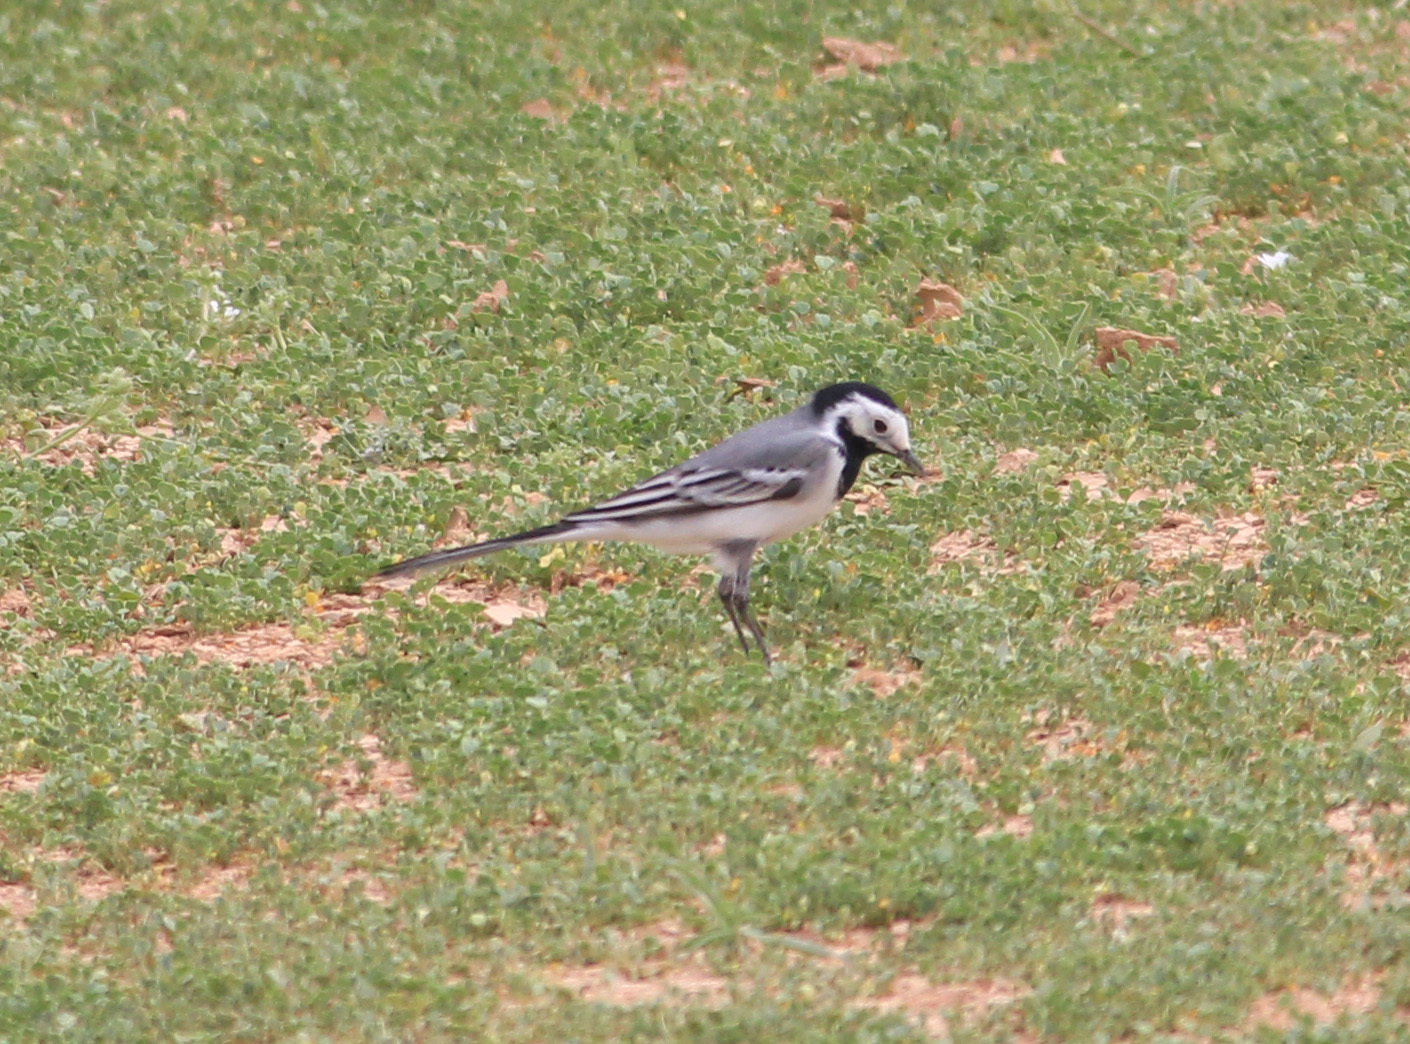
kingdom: Animalia
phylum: Chordata
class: Aves
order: Passeriformes
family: Motacillidae
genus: Motacilla
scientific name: Motacilla alba
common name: White wagtail
